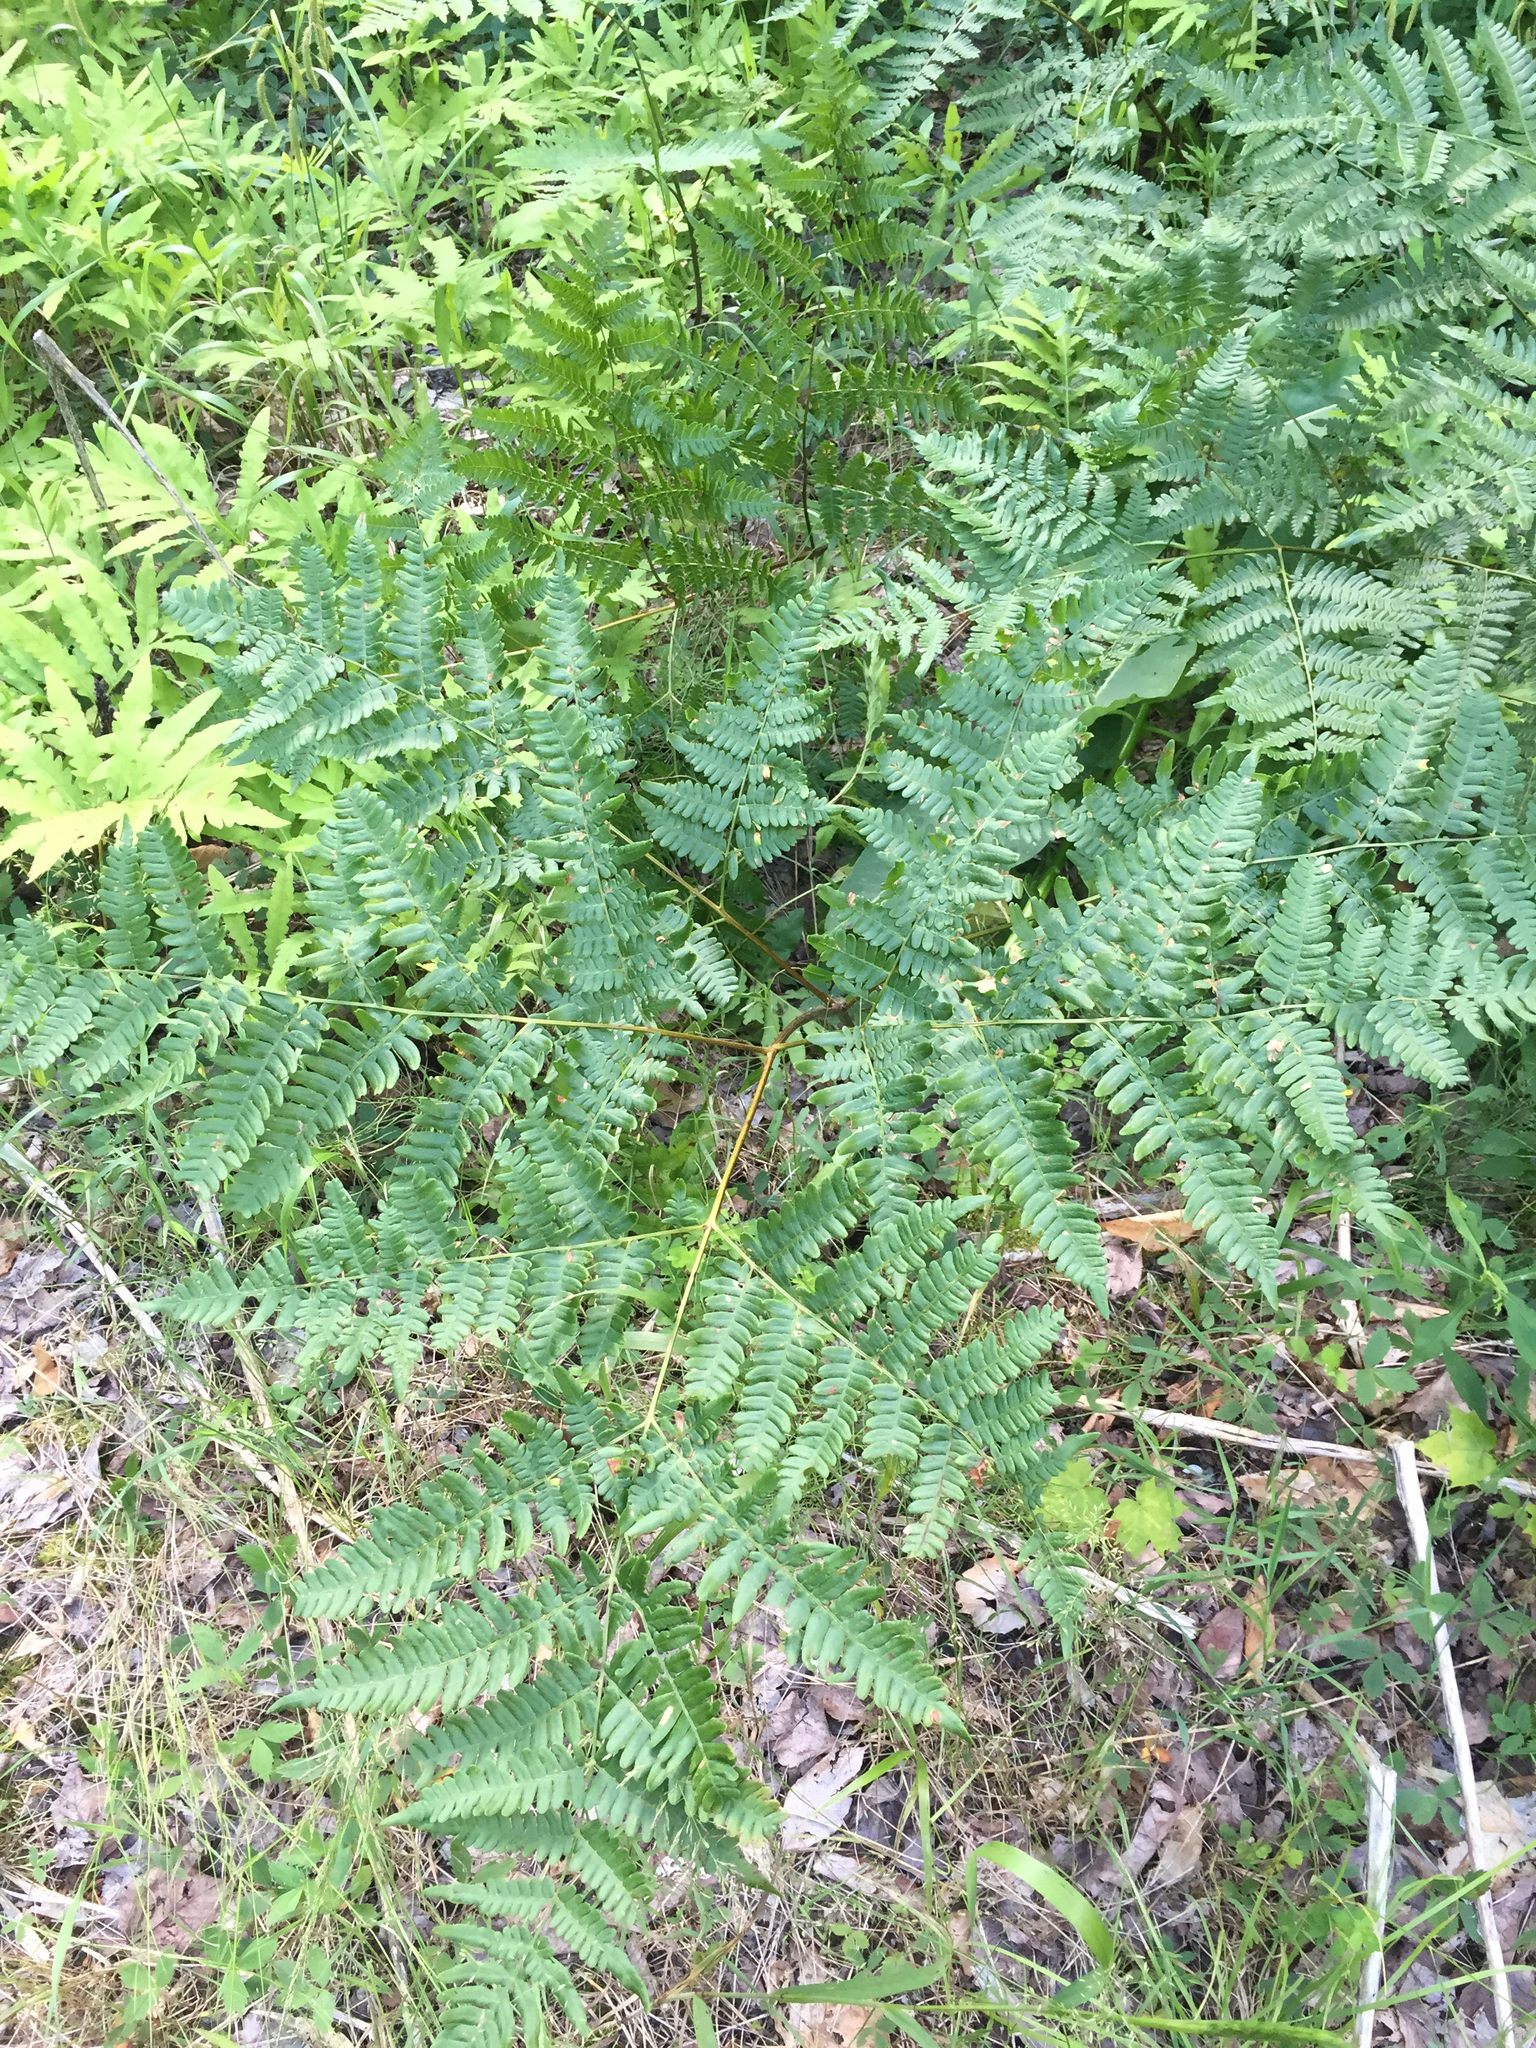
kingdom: Plantae
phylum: Tracheophyta
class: Polypodiopsida
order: Polypodiales
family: Dennstaedtiaceae
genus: Pteridium
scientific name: Pteridium aquilinum
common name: Bracken
